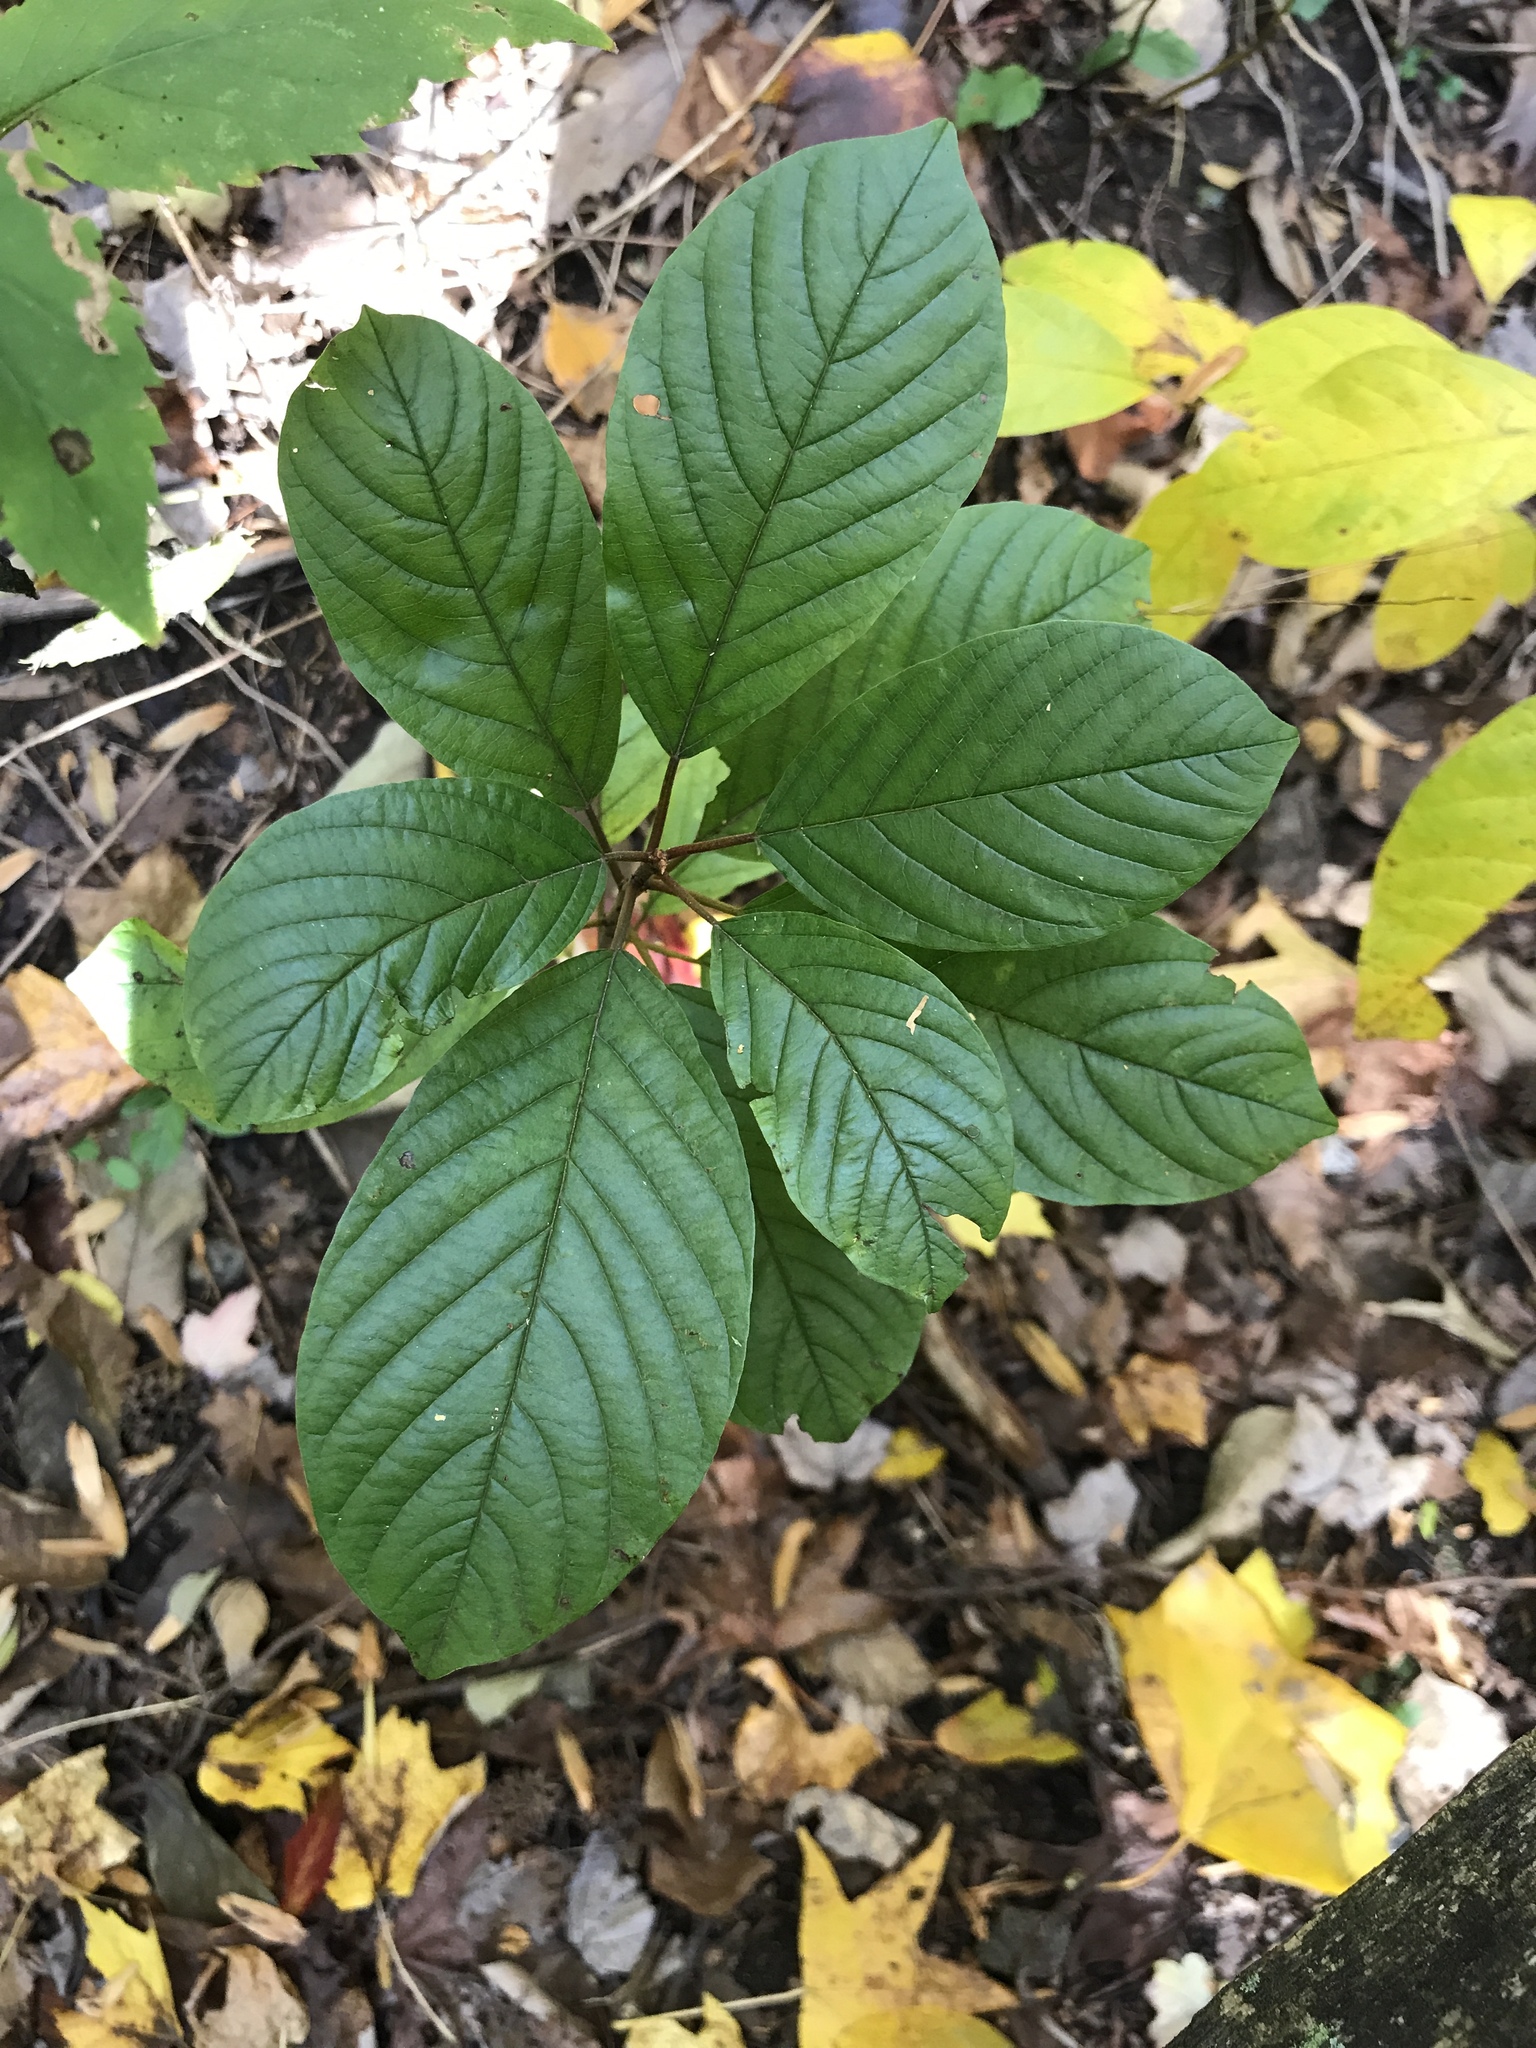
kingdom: Plantae
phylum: Tracheophyta
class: Magnoliopsida
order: Rosales
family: Rhamnaceae
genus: Frangula
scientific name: Frangula alnus
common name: Alder buckthorn
